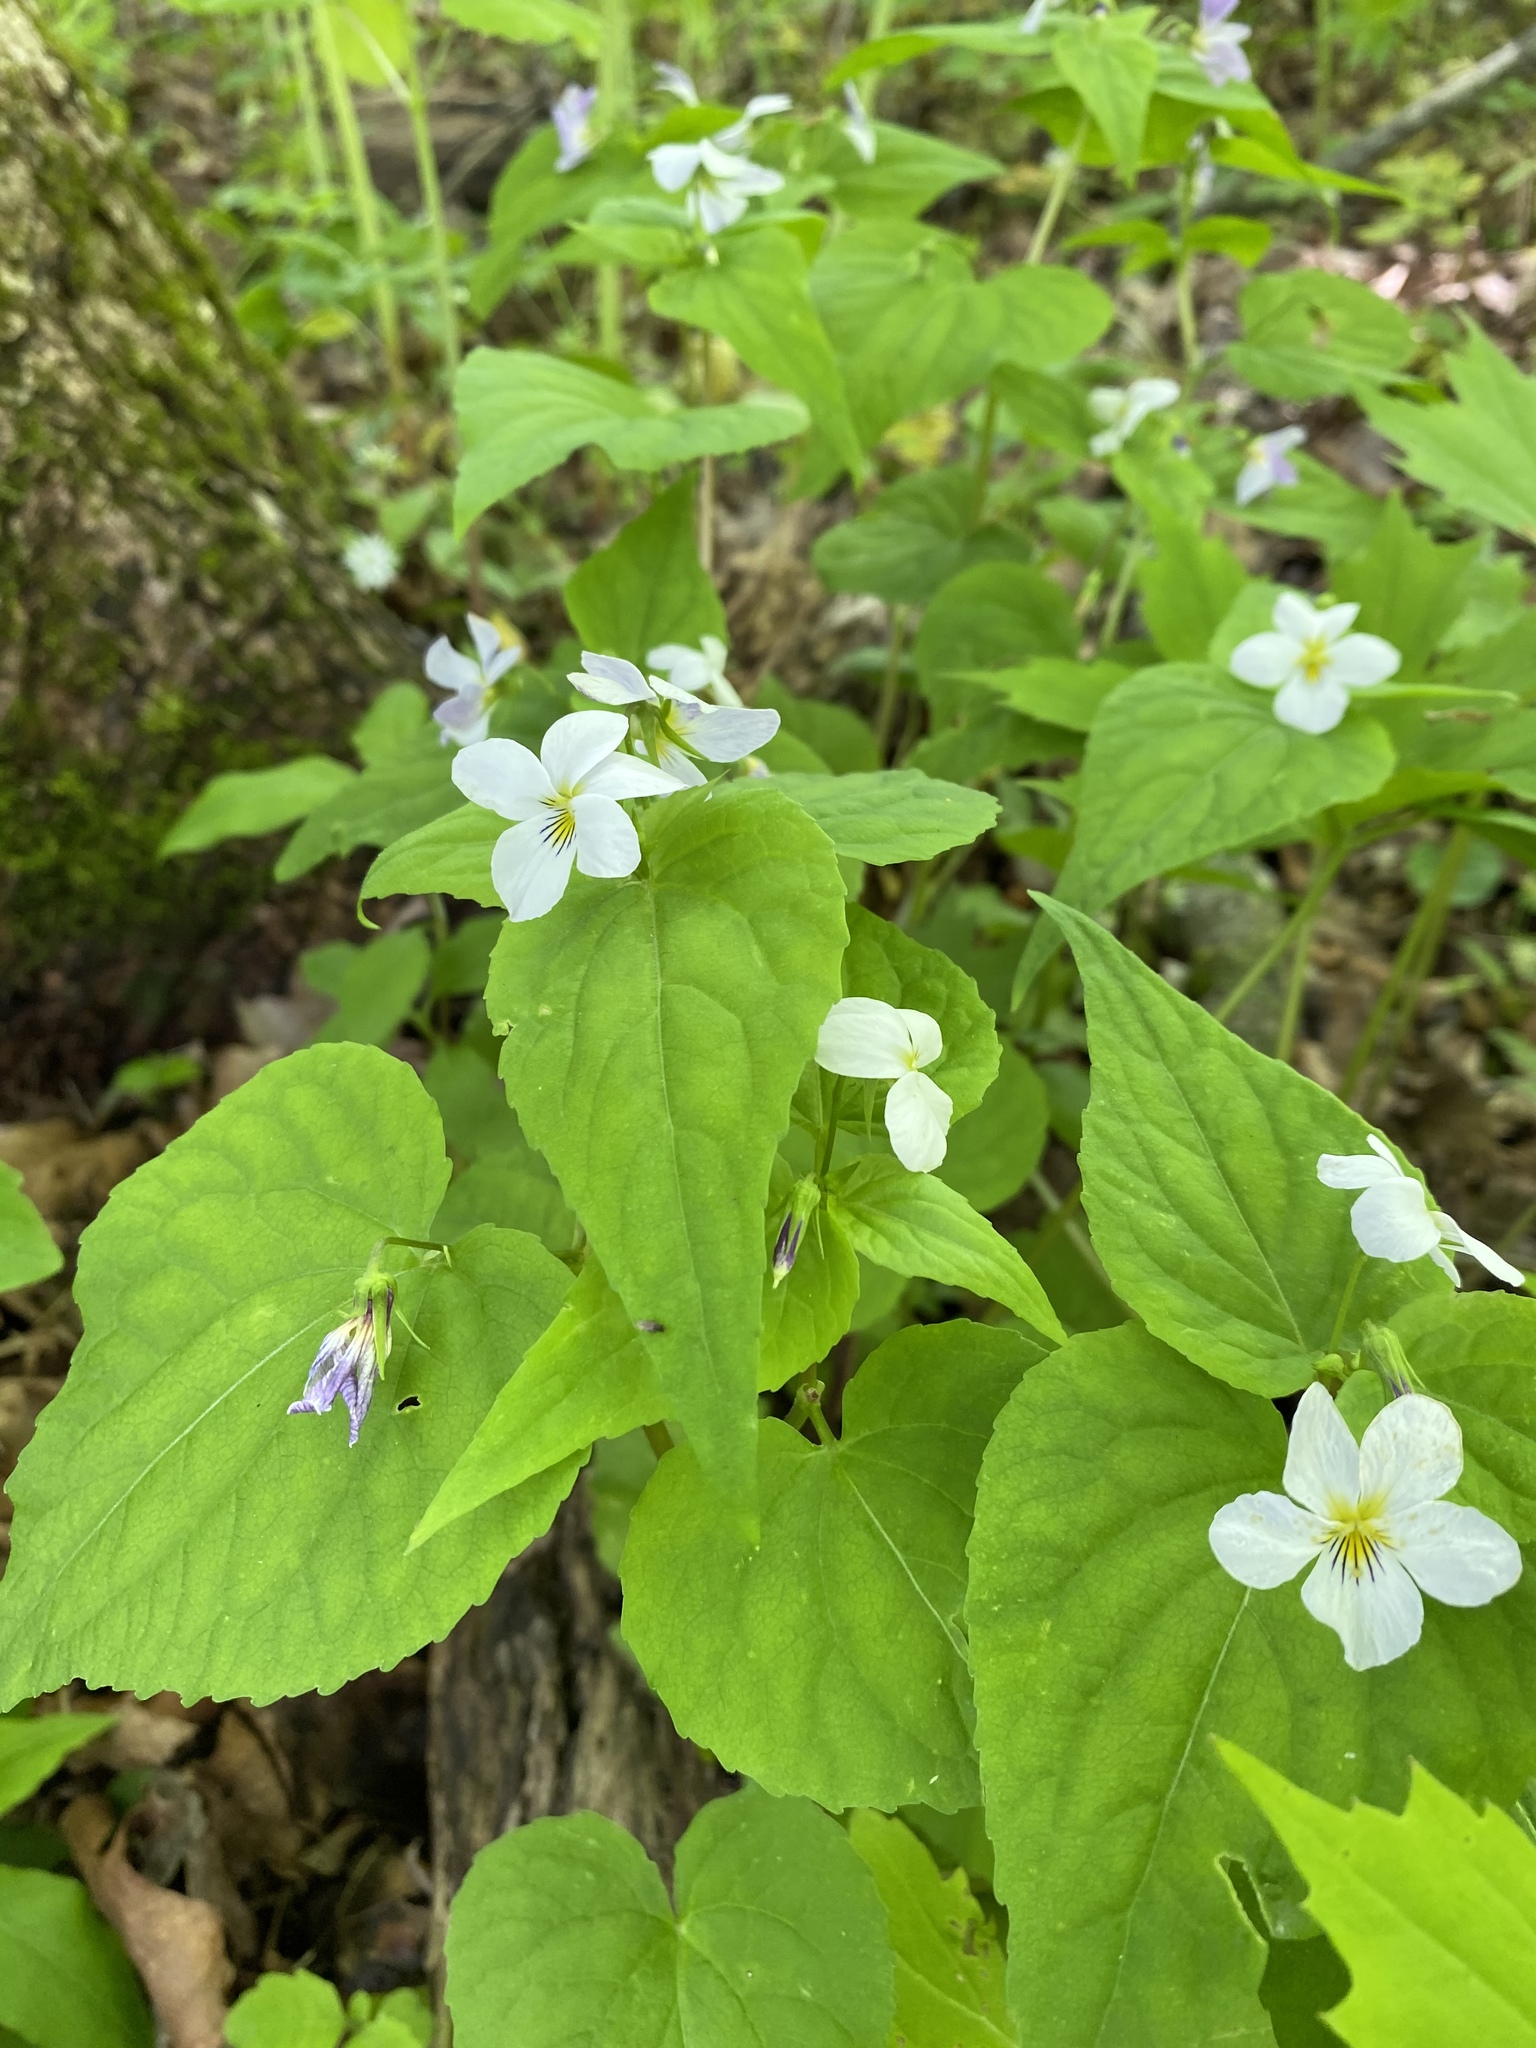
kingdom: Plantae
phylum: Tracheophyta
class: Magnoliopsida
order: Malpighiales
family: Violaceae
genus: Viola
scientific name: Viola canadensis
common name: Canada violet
